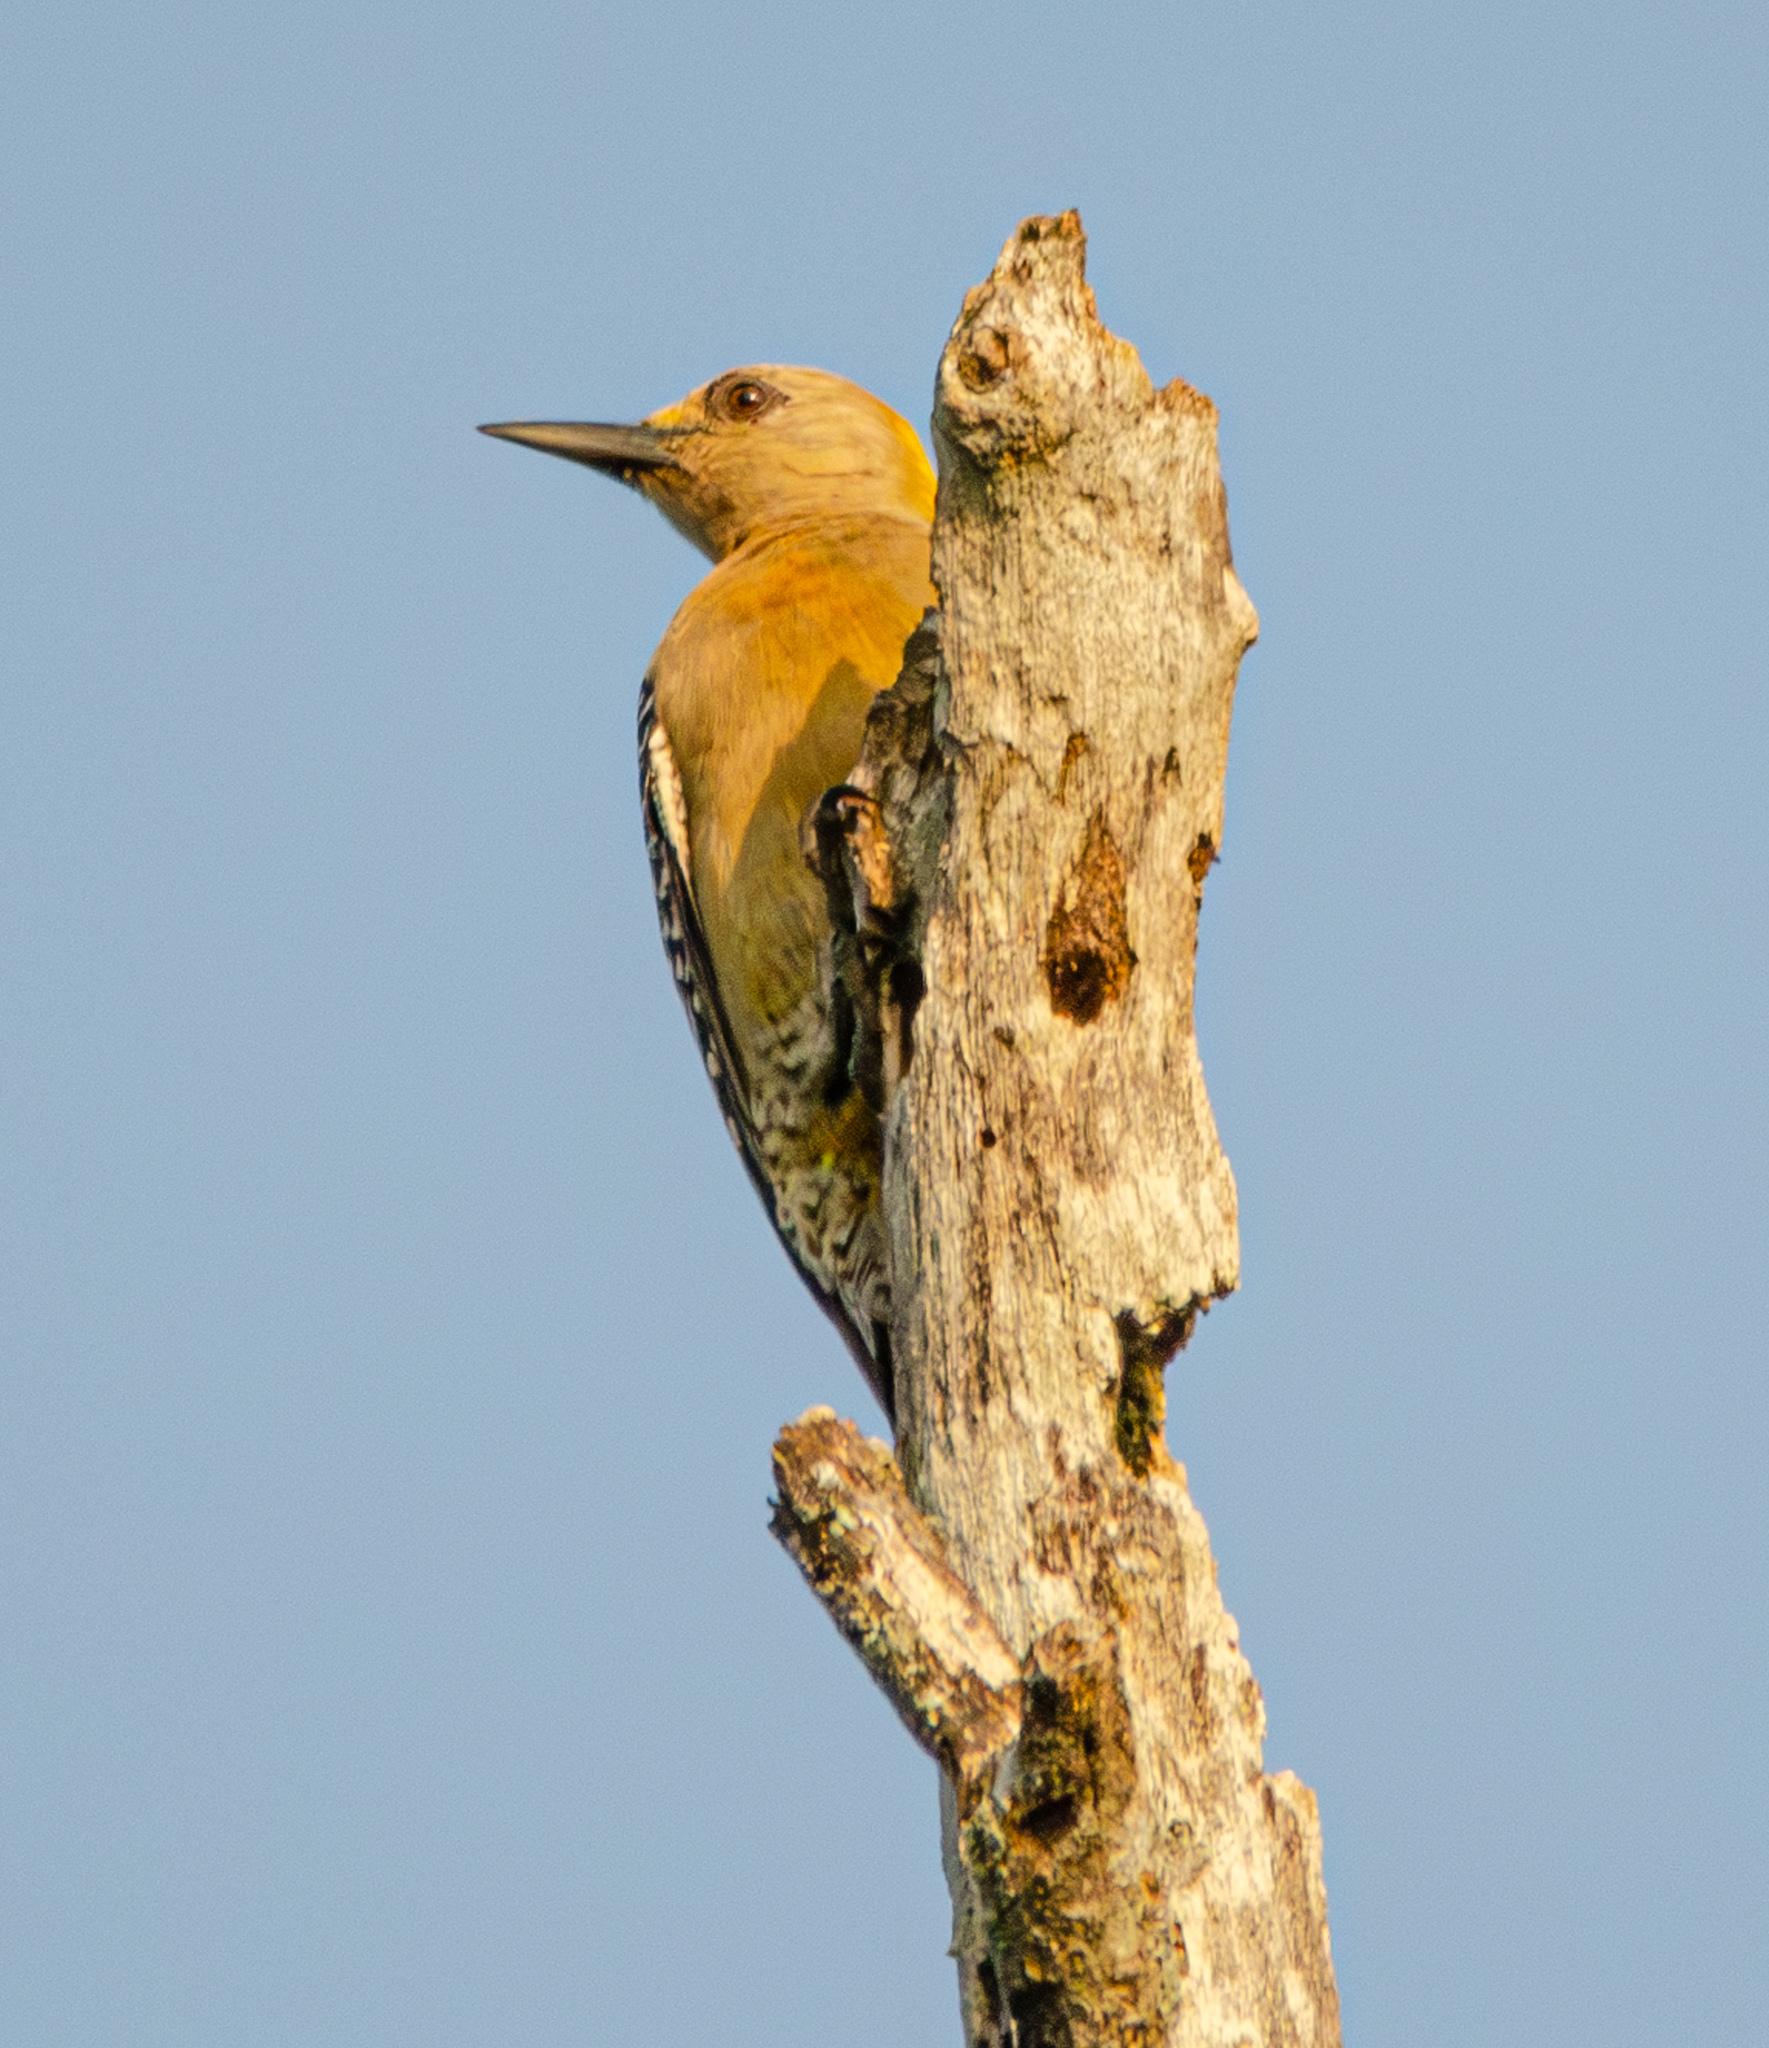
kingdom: Animalia
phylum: Chordata
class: Aves
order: Piciformes
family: Picidae
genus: Melanerpes
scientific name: Melanerpes hoffmannii
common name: Hoffmann's woodpecker
